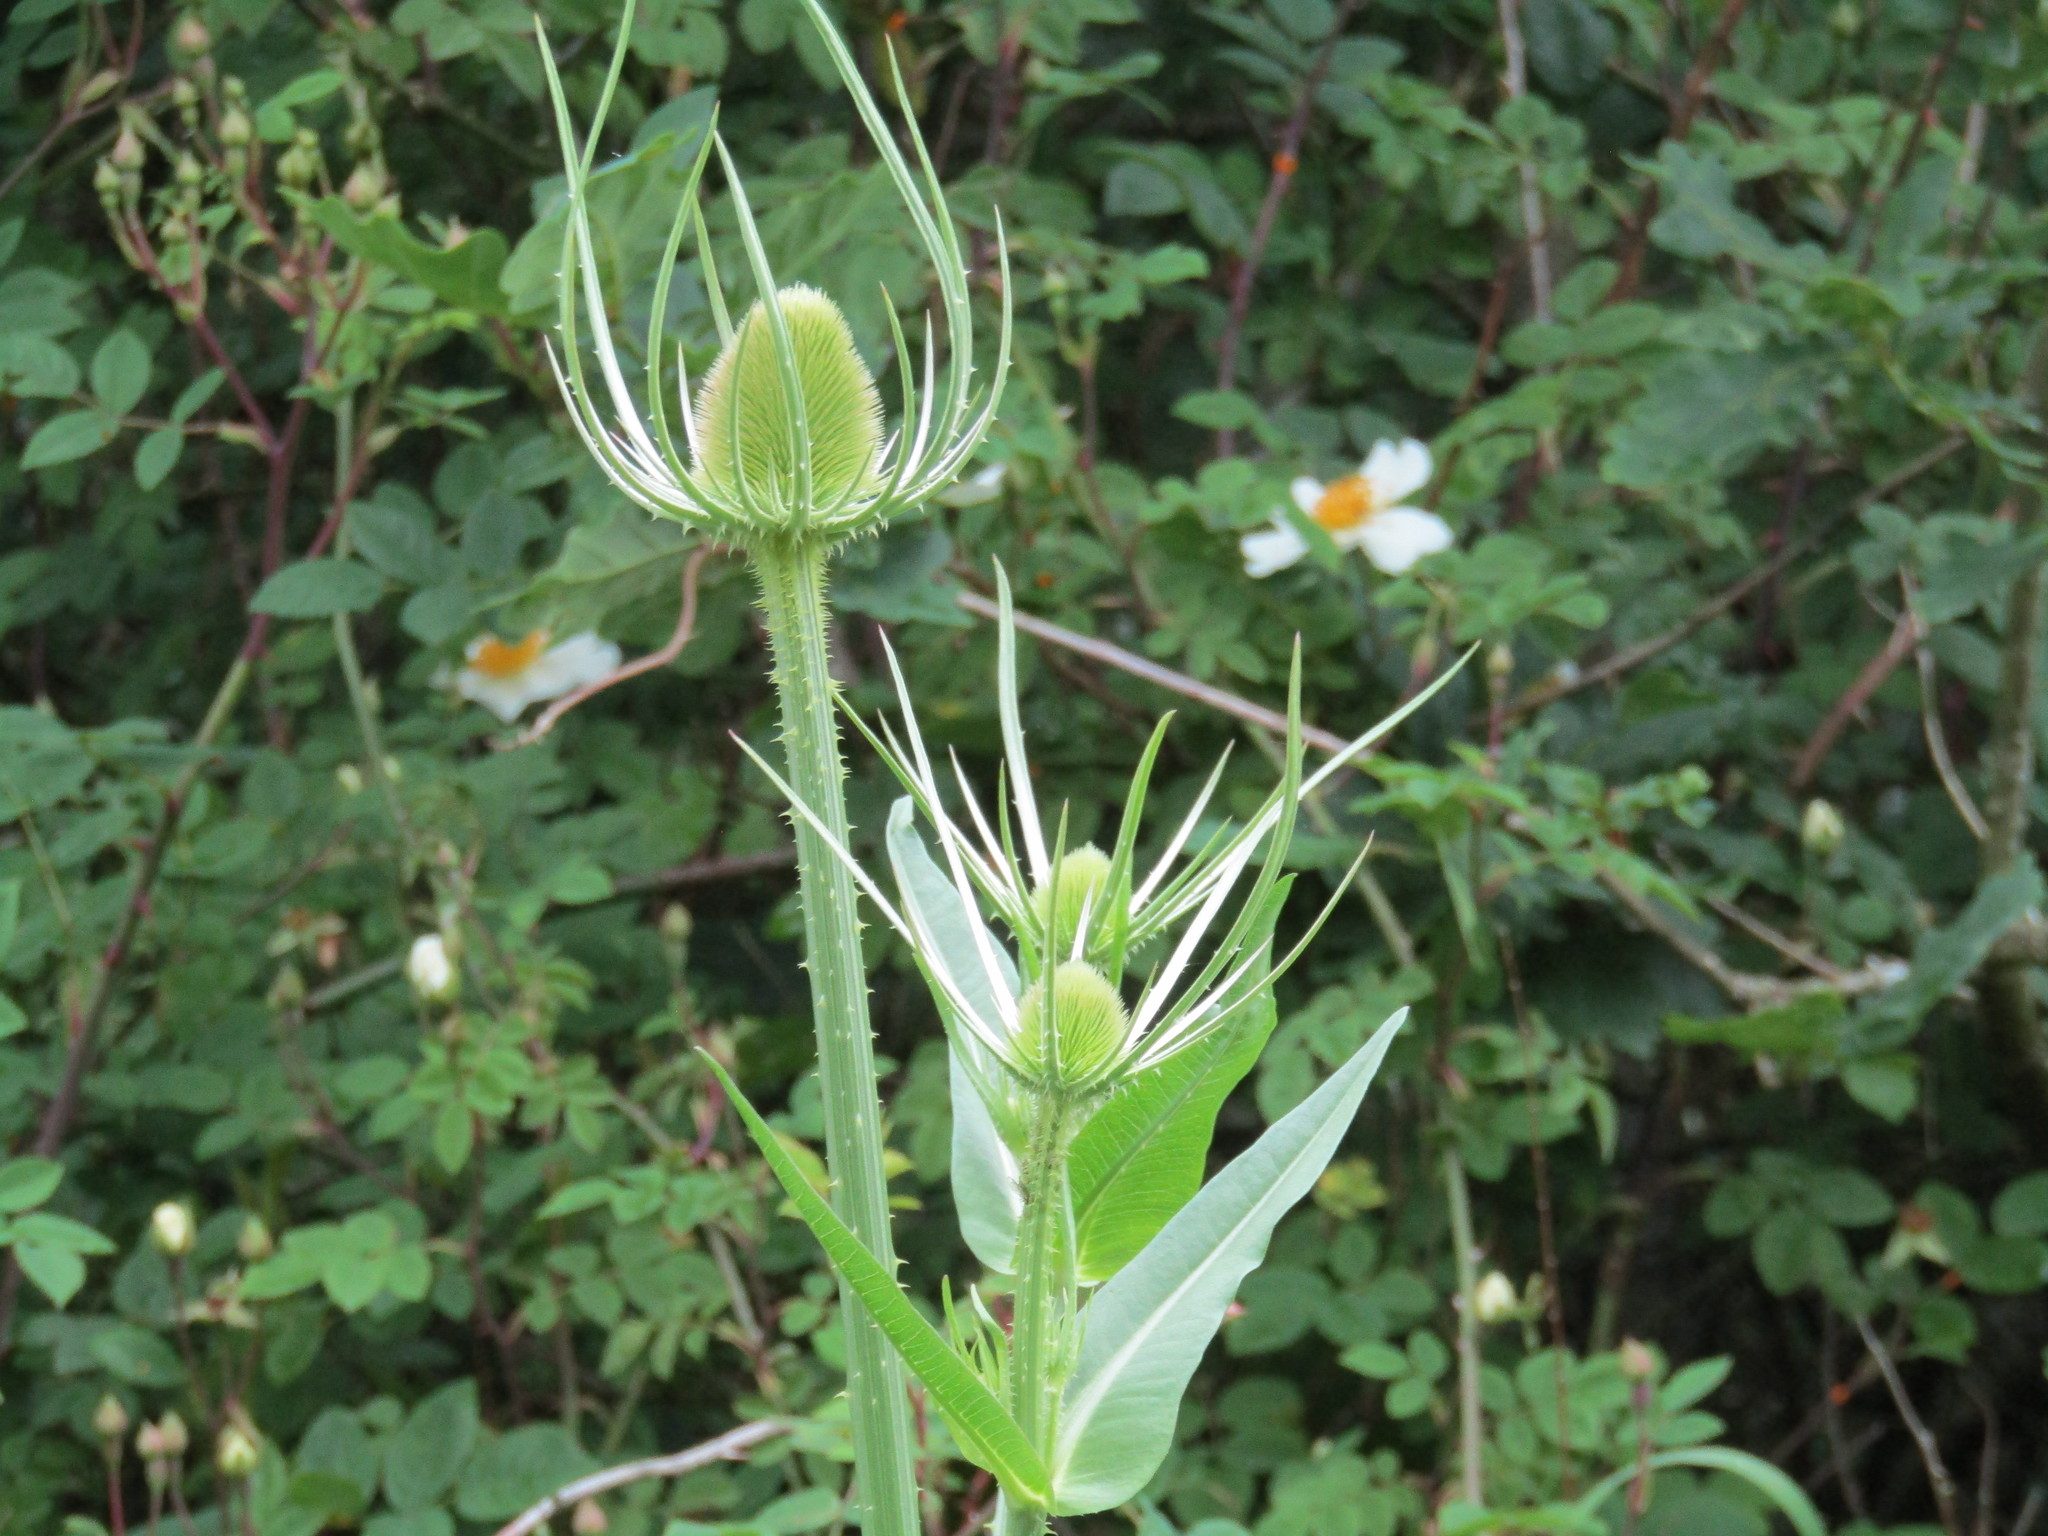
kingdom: Plantae
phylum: Tracheophyta
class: Magnoliopsida
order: Dipsacales
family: Caprifoliaceae
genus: Dipsacus
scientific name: Dipsacus fullonum
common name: Teasel
